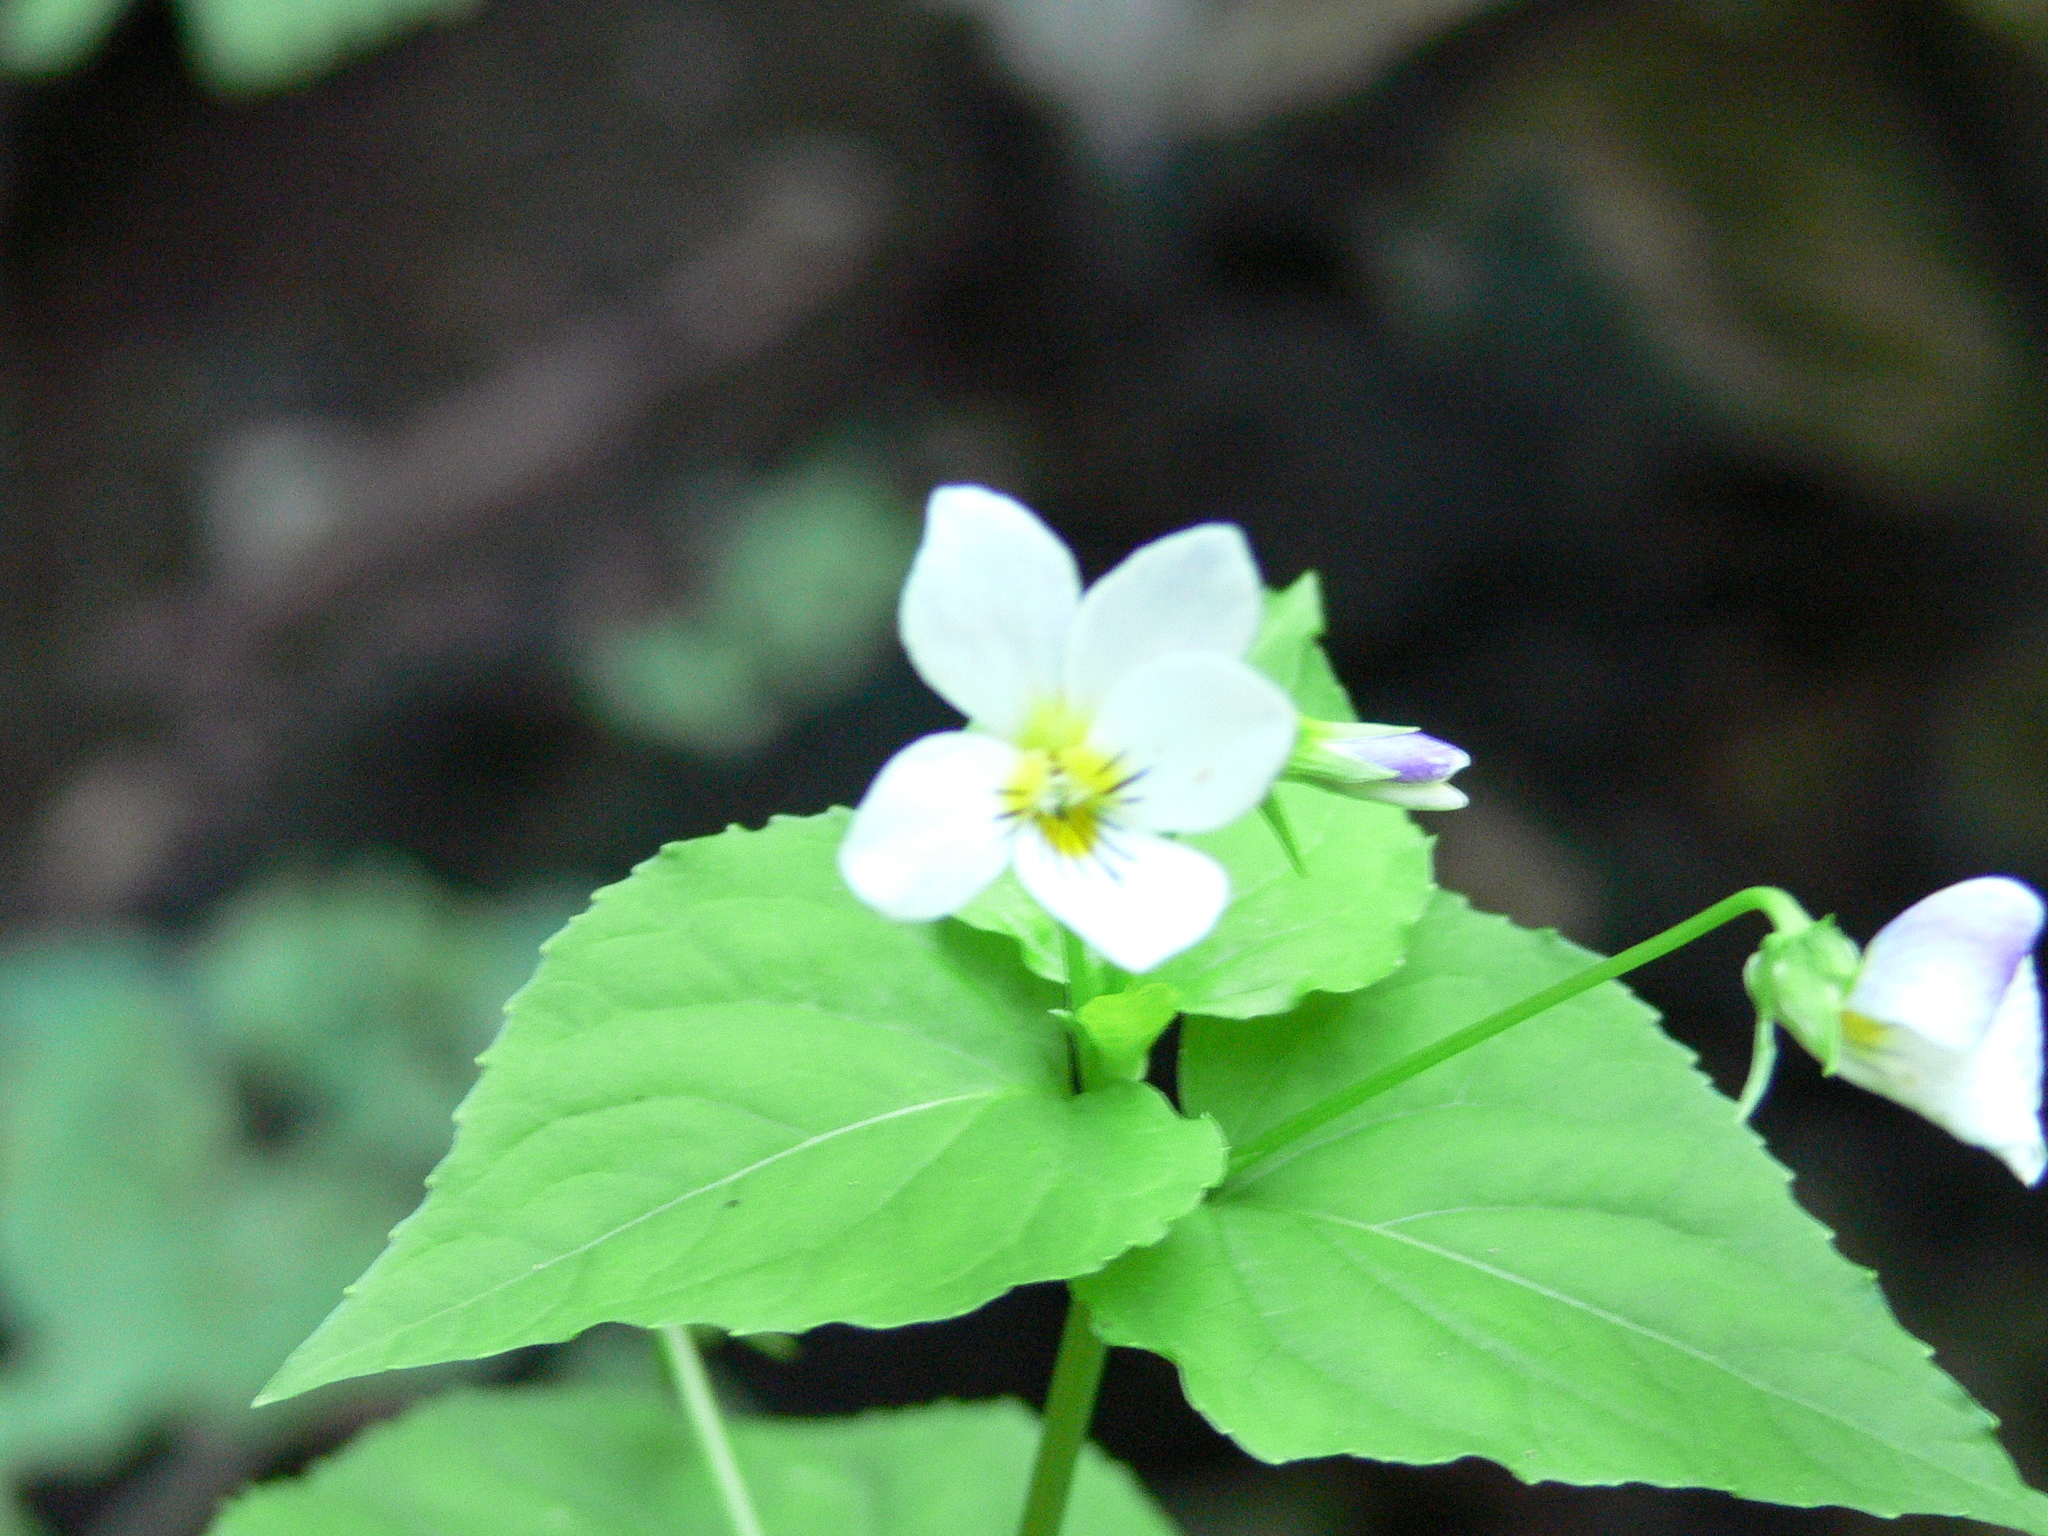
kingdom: Plantae
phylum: Tracheophyta
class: Magnoliopsida
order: Malpighiales
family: Violaceae
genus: Viola
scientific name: Viola canadensis
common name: Canada violet
